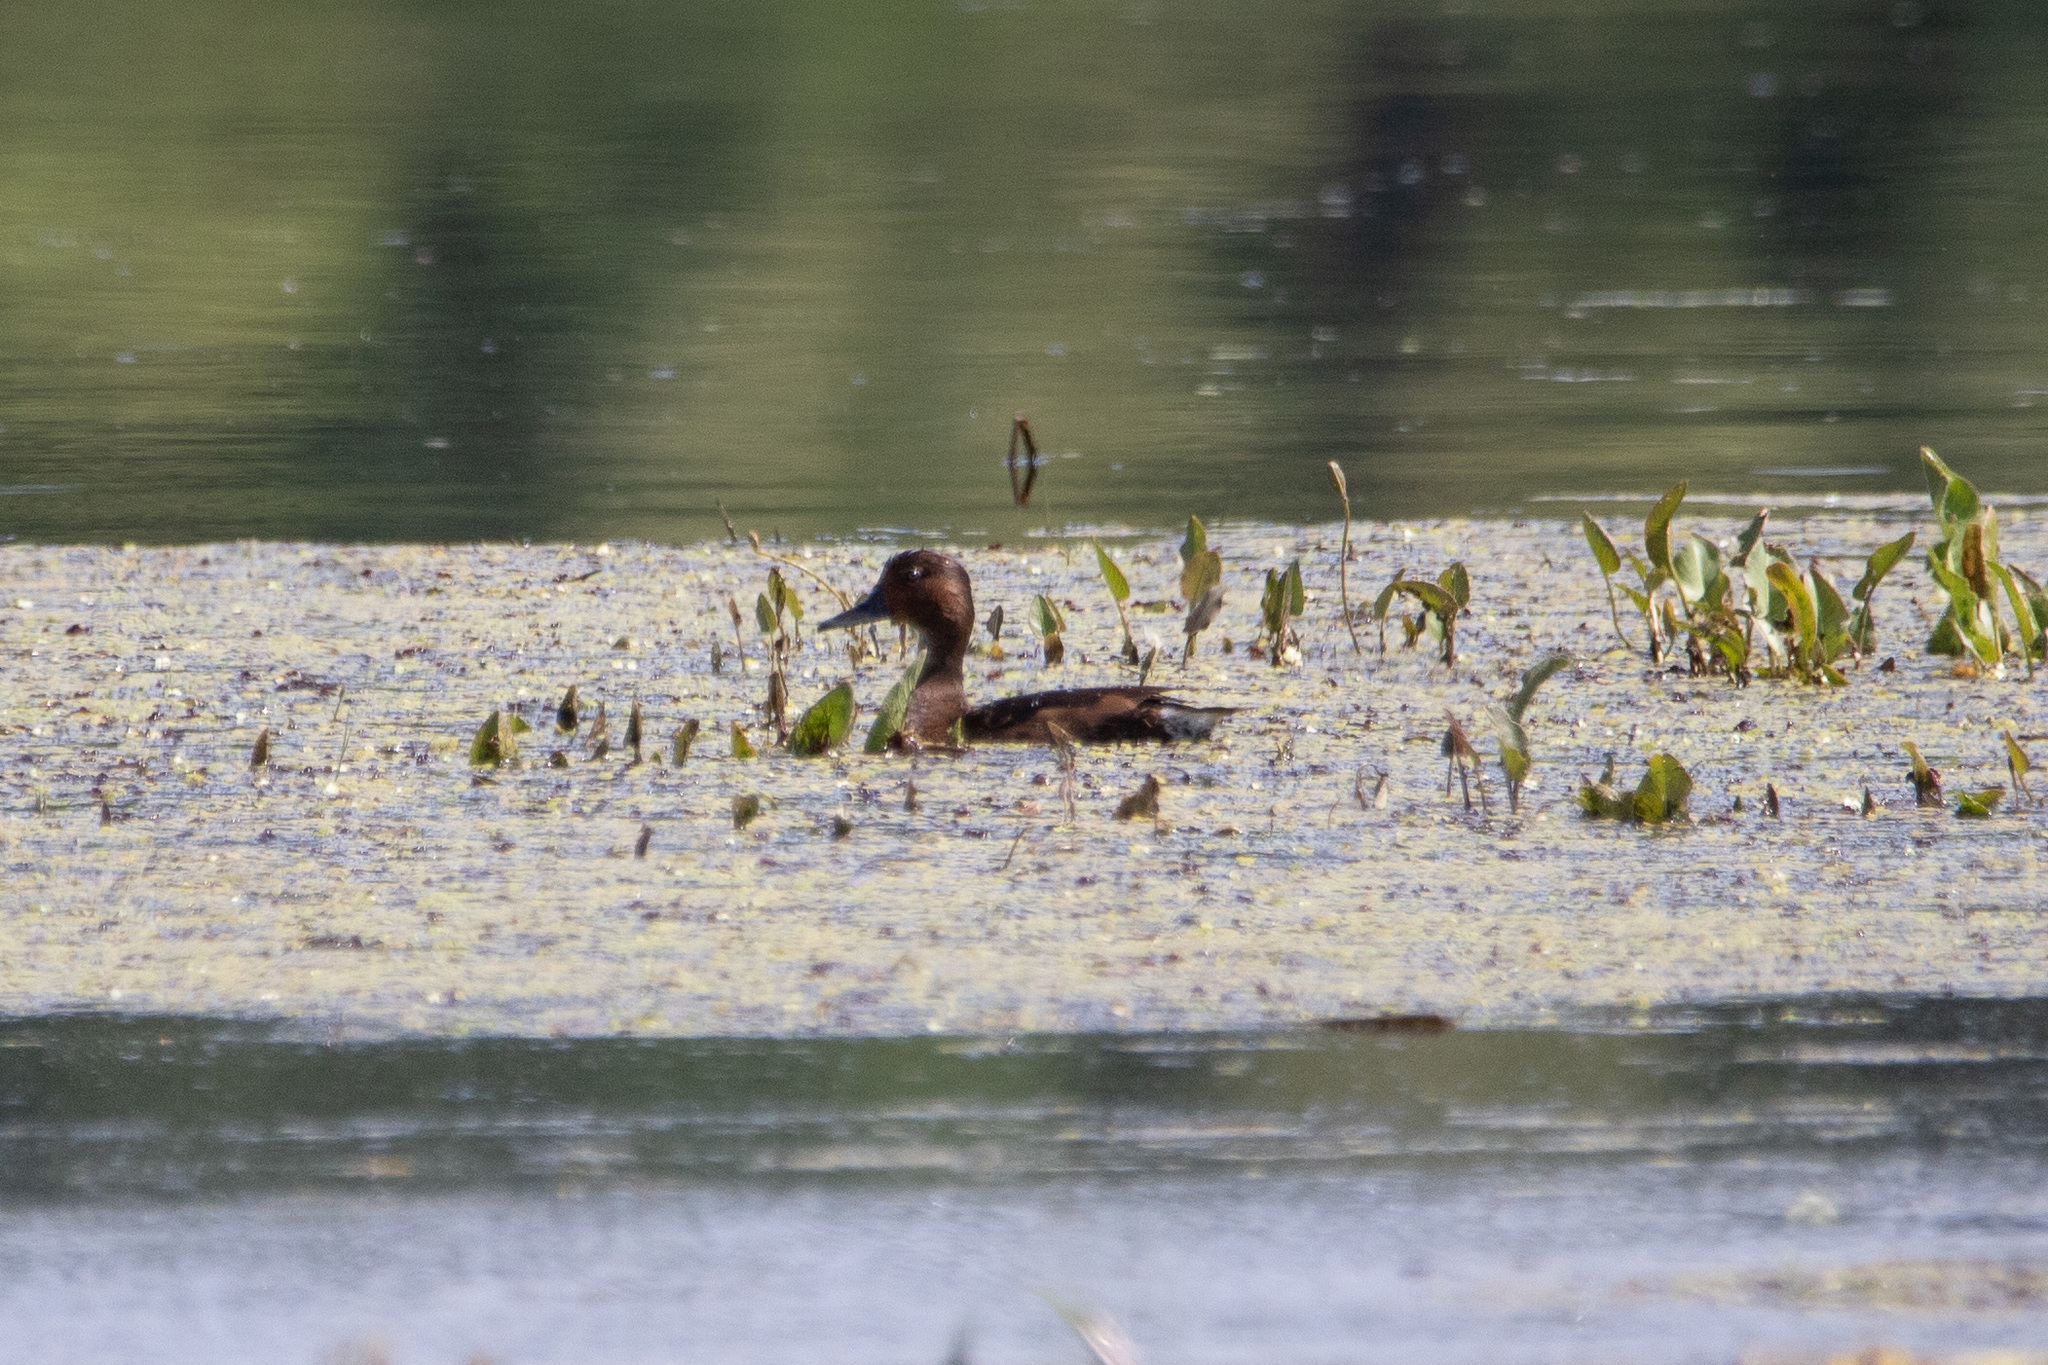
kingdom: Animalia
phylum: Chordata
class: Aves
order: Anseriformes
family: Anatidae
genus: Aythya
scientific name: Aythya nyroca
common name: Ferruginous duck
